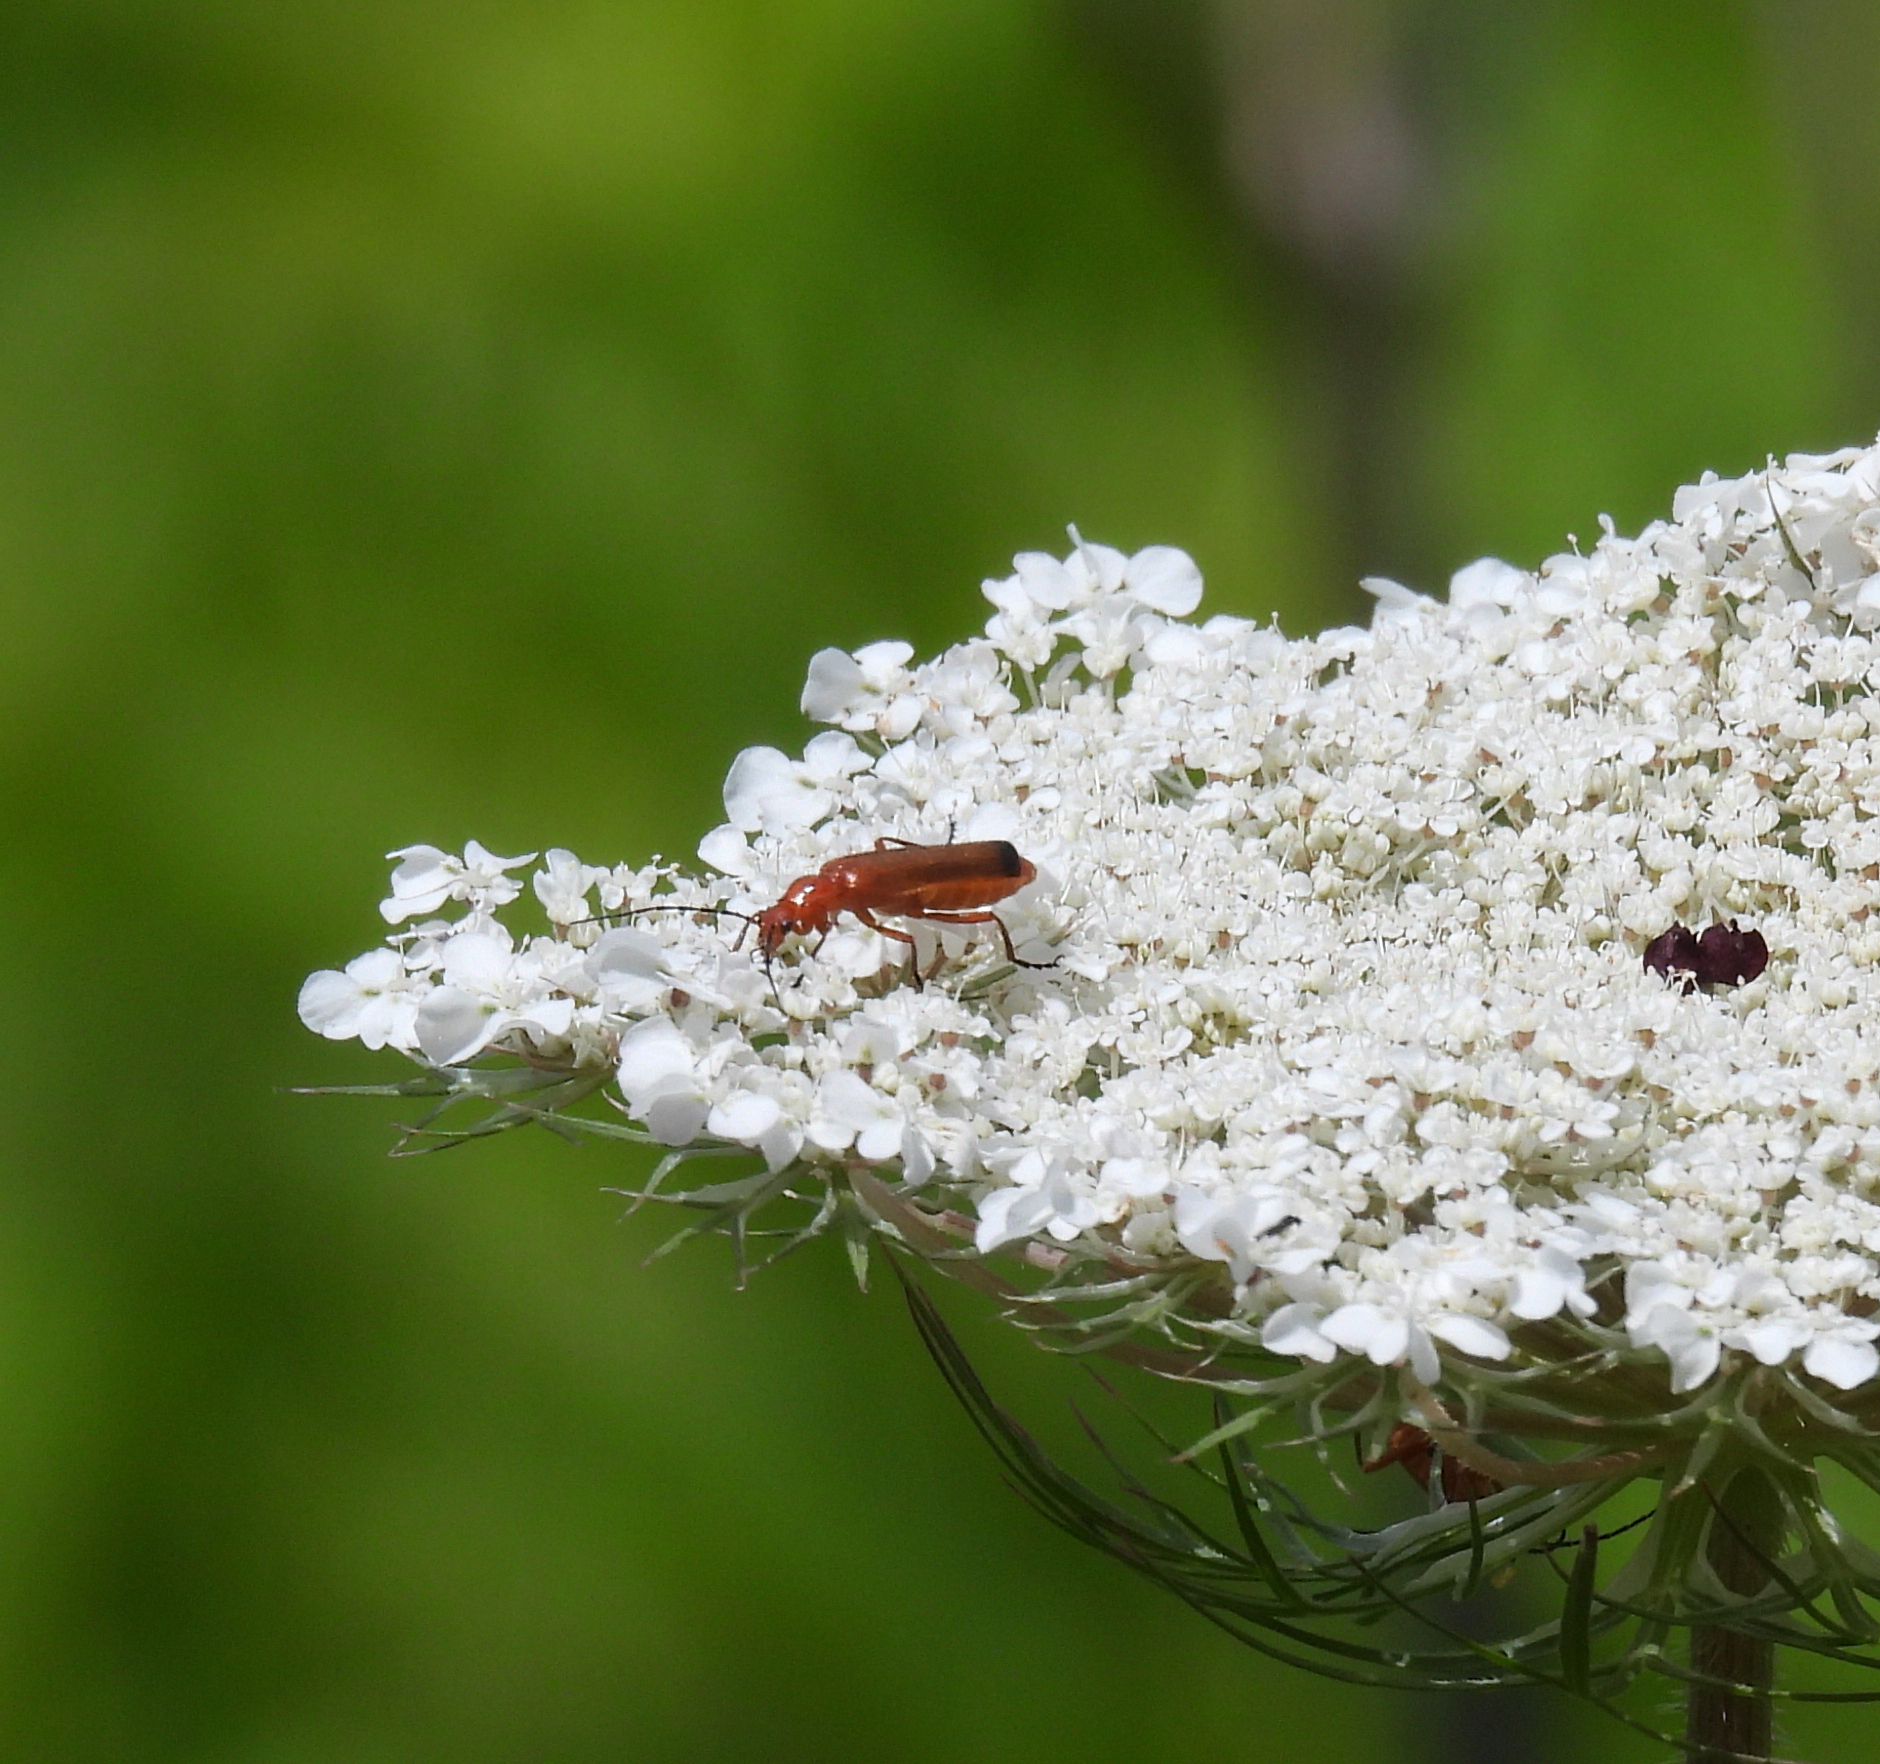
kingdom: Animalia
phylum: Arthropoda
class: Insecta
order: Coleoptera
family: Cantharidae
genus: Rhagonycha
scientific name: Rhagonycha fulva
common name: Common red soldier beetle
